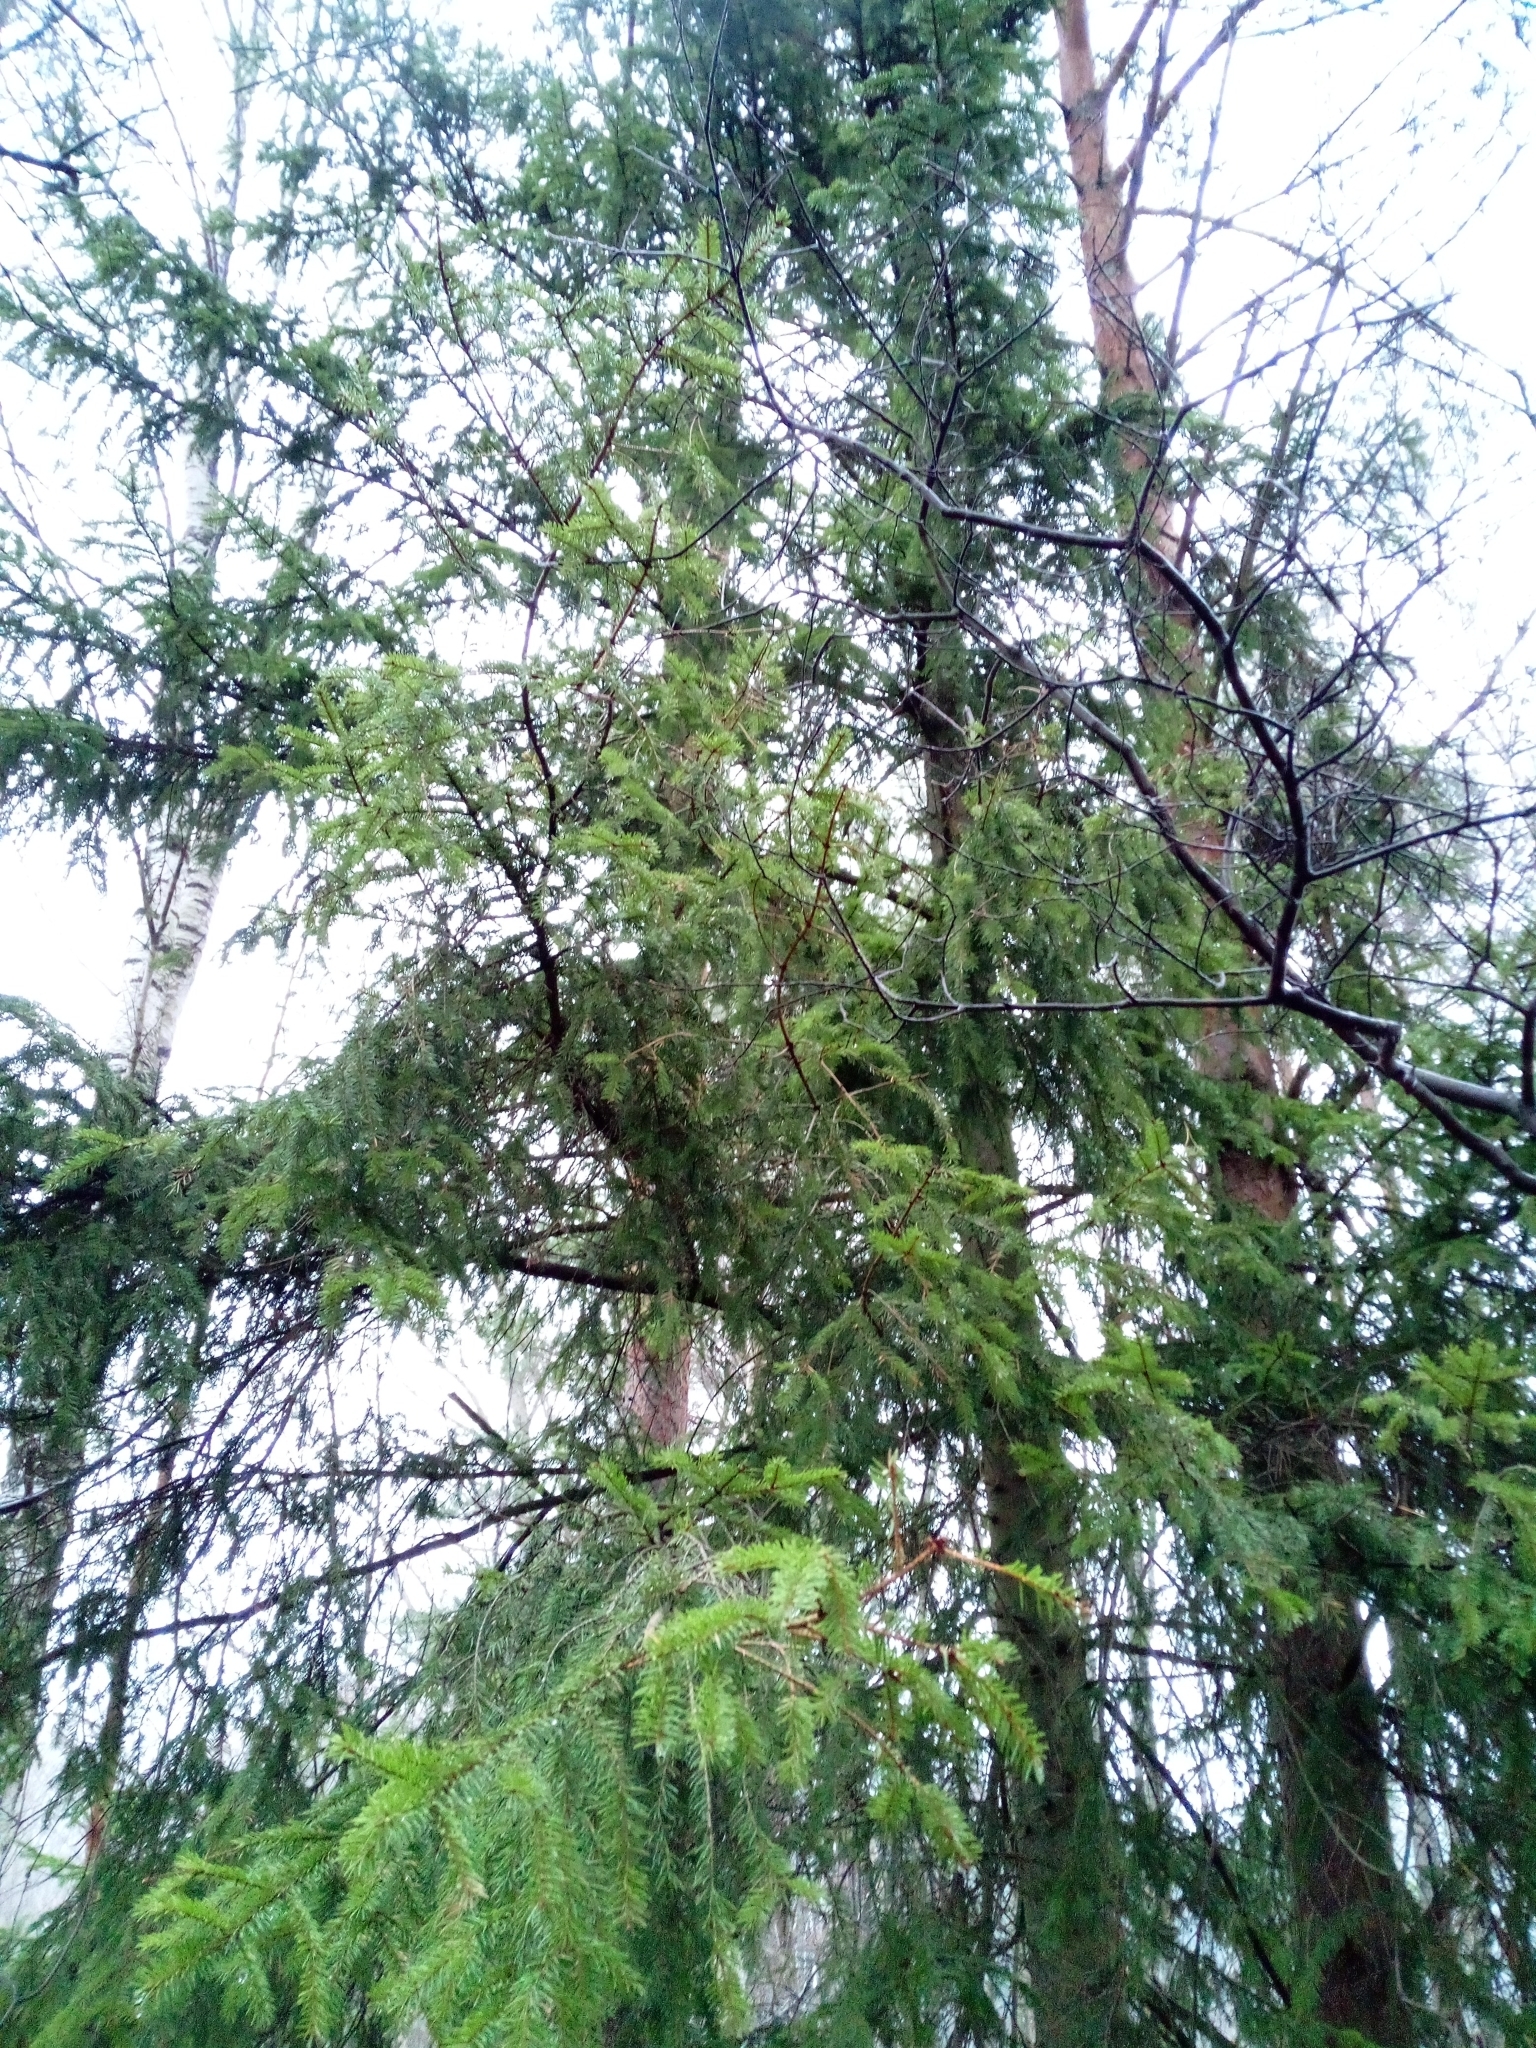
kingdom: Plantae
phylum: Tracheophyta
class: Pinopsida
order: Pinales
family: Pinaceae
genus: Picea
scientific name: Picea abies
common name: Norway spruce
